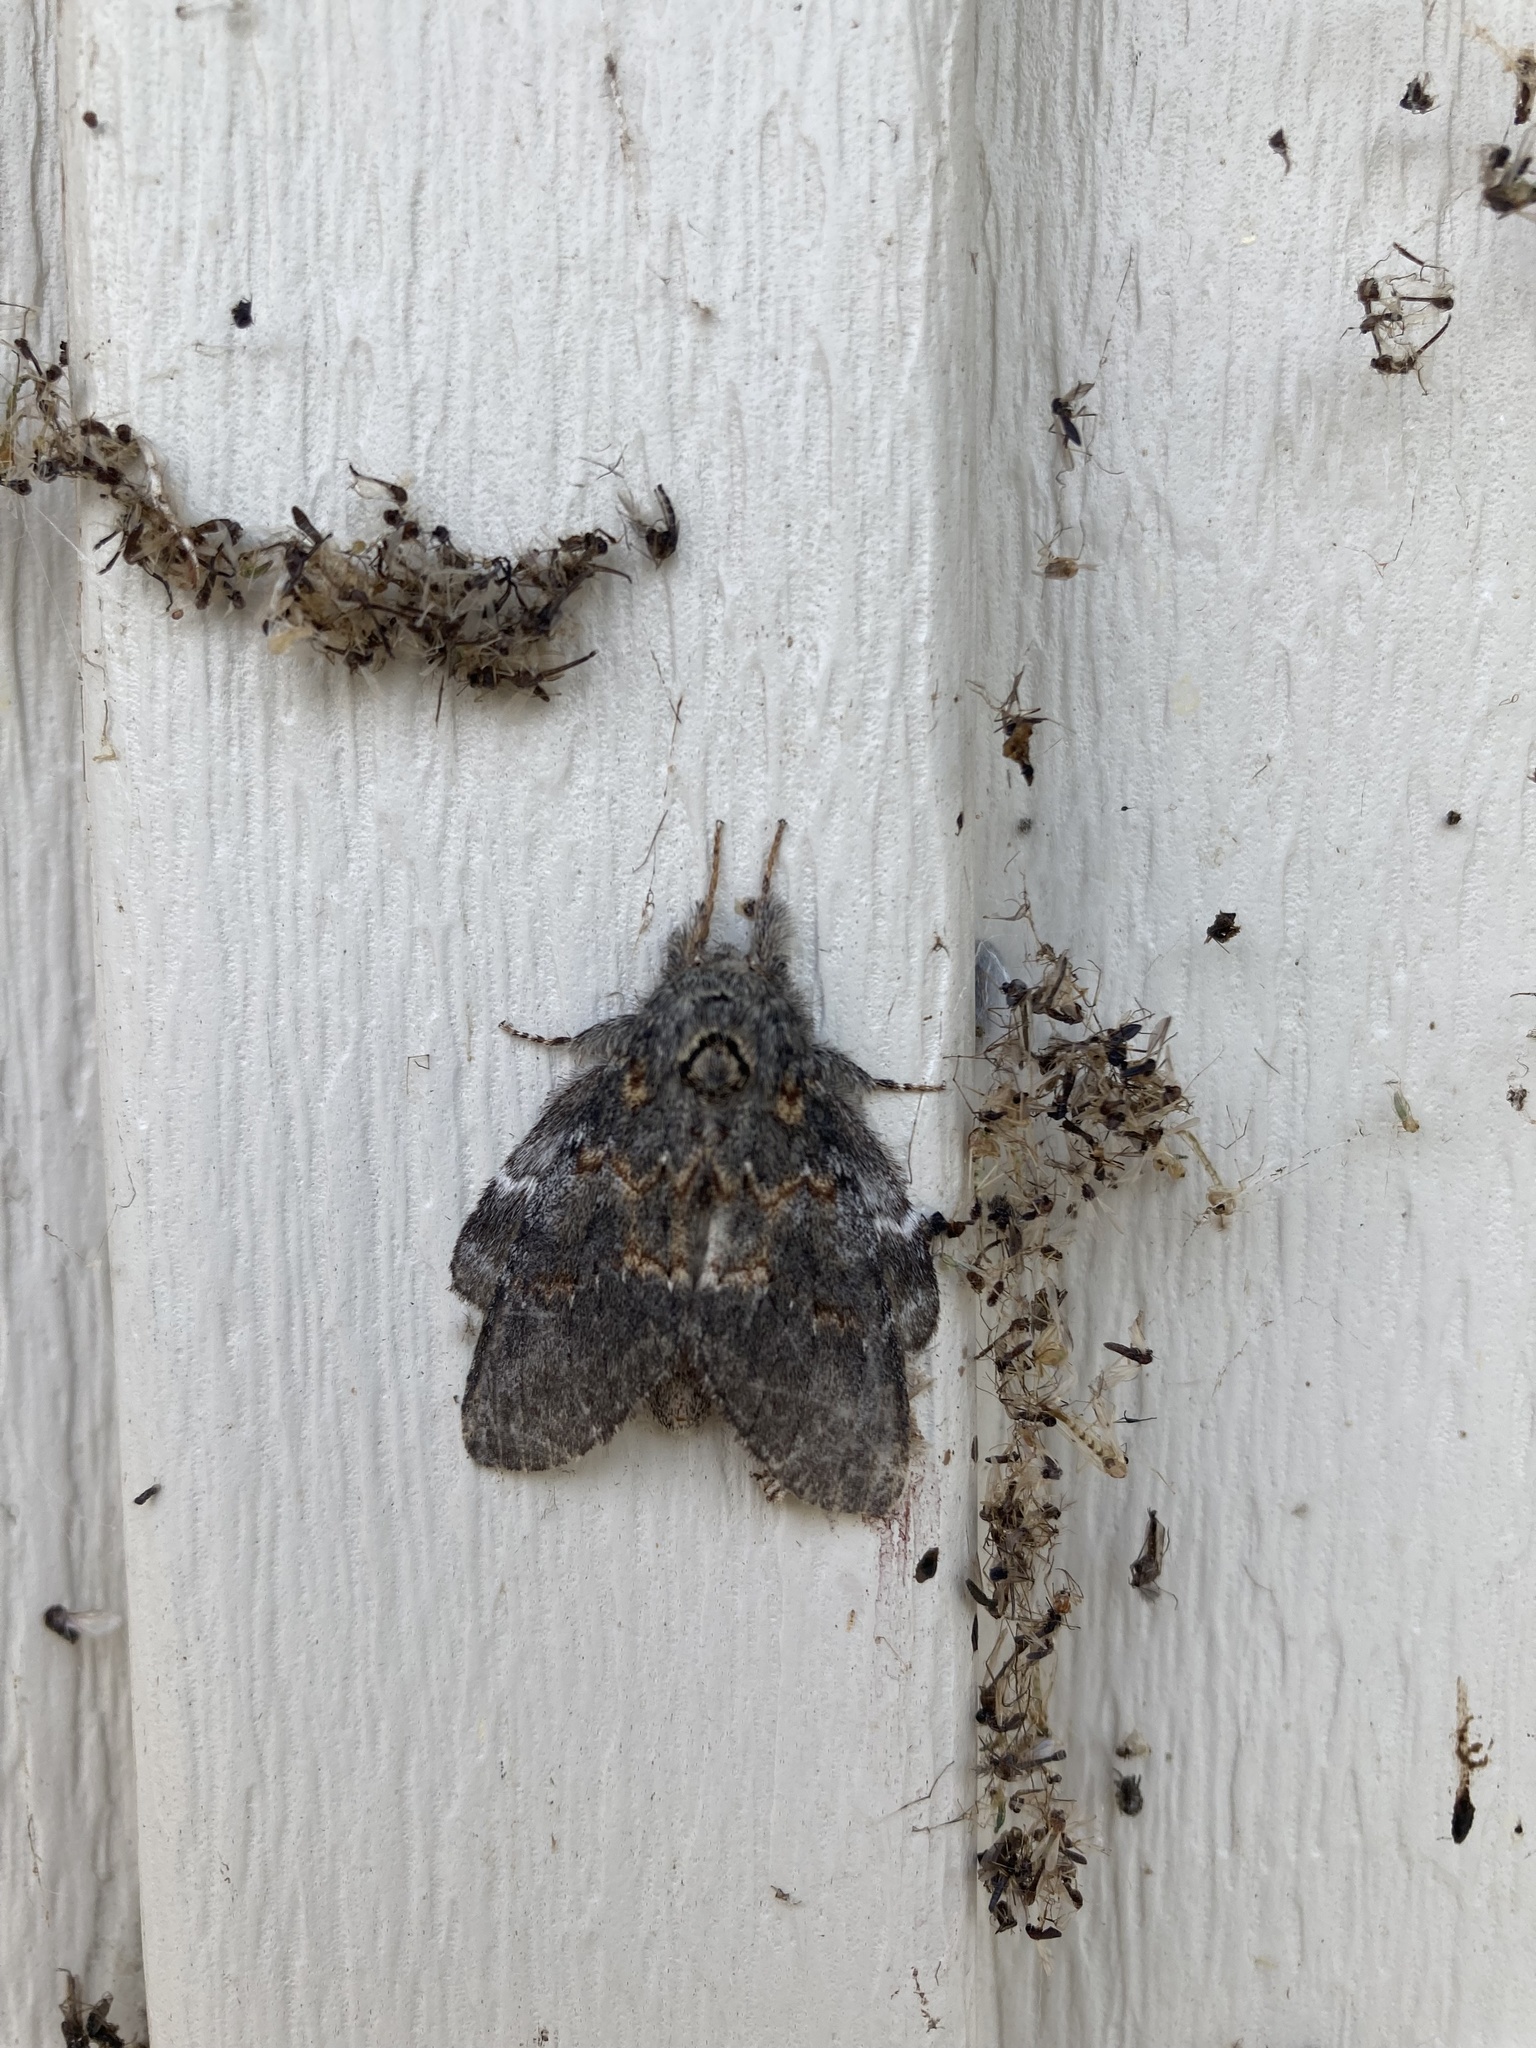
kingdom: Animalia
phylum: Arthropoda
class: Insecta
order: Lepidoptera
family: Notodontidae
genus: Peridea
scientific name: Peridea angulosa
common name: Angulose prominent
